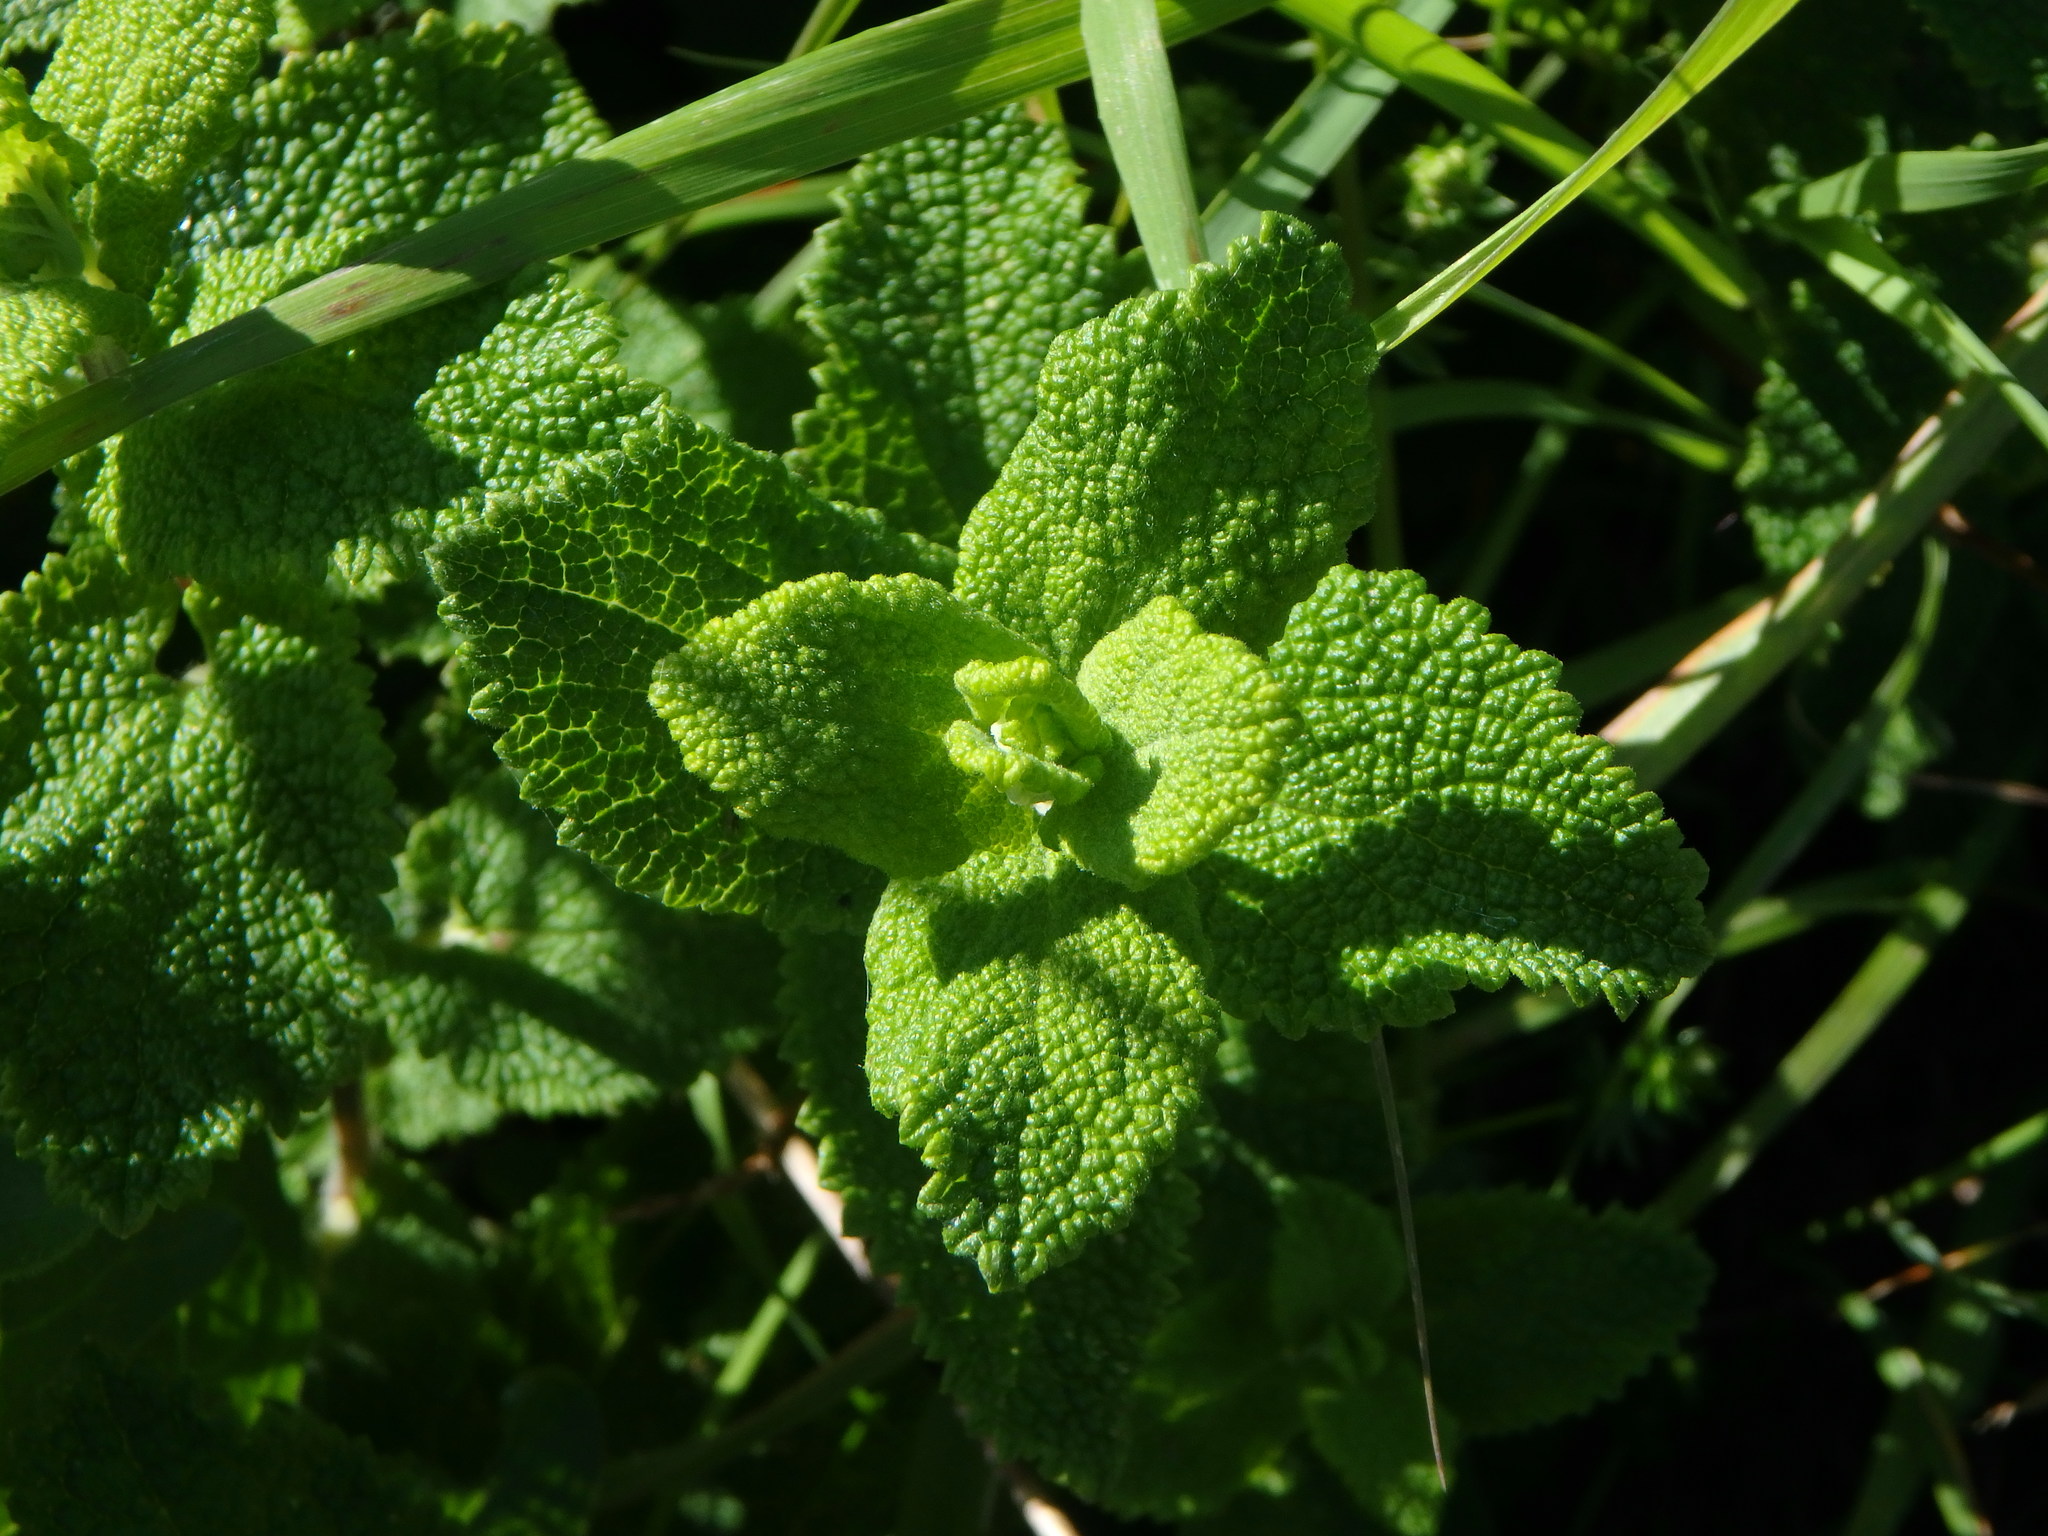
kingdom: Plantae
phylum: Tracheophyta
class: Magnoliopsida
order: Lamiales
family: Lamiaceae
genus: Teucrium
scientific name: Teucrium scorodonia
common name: Woodland germander
